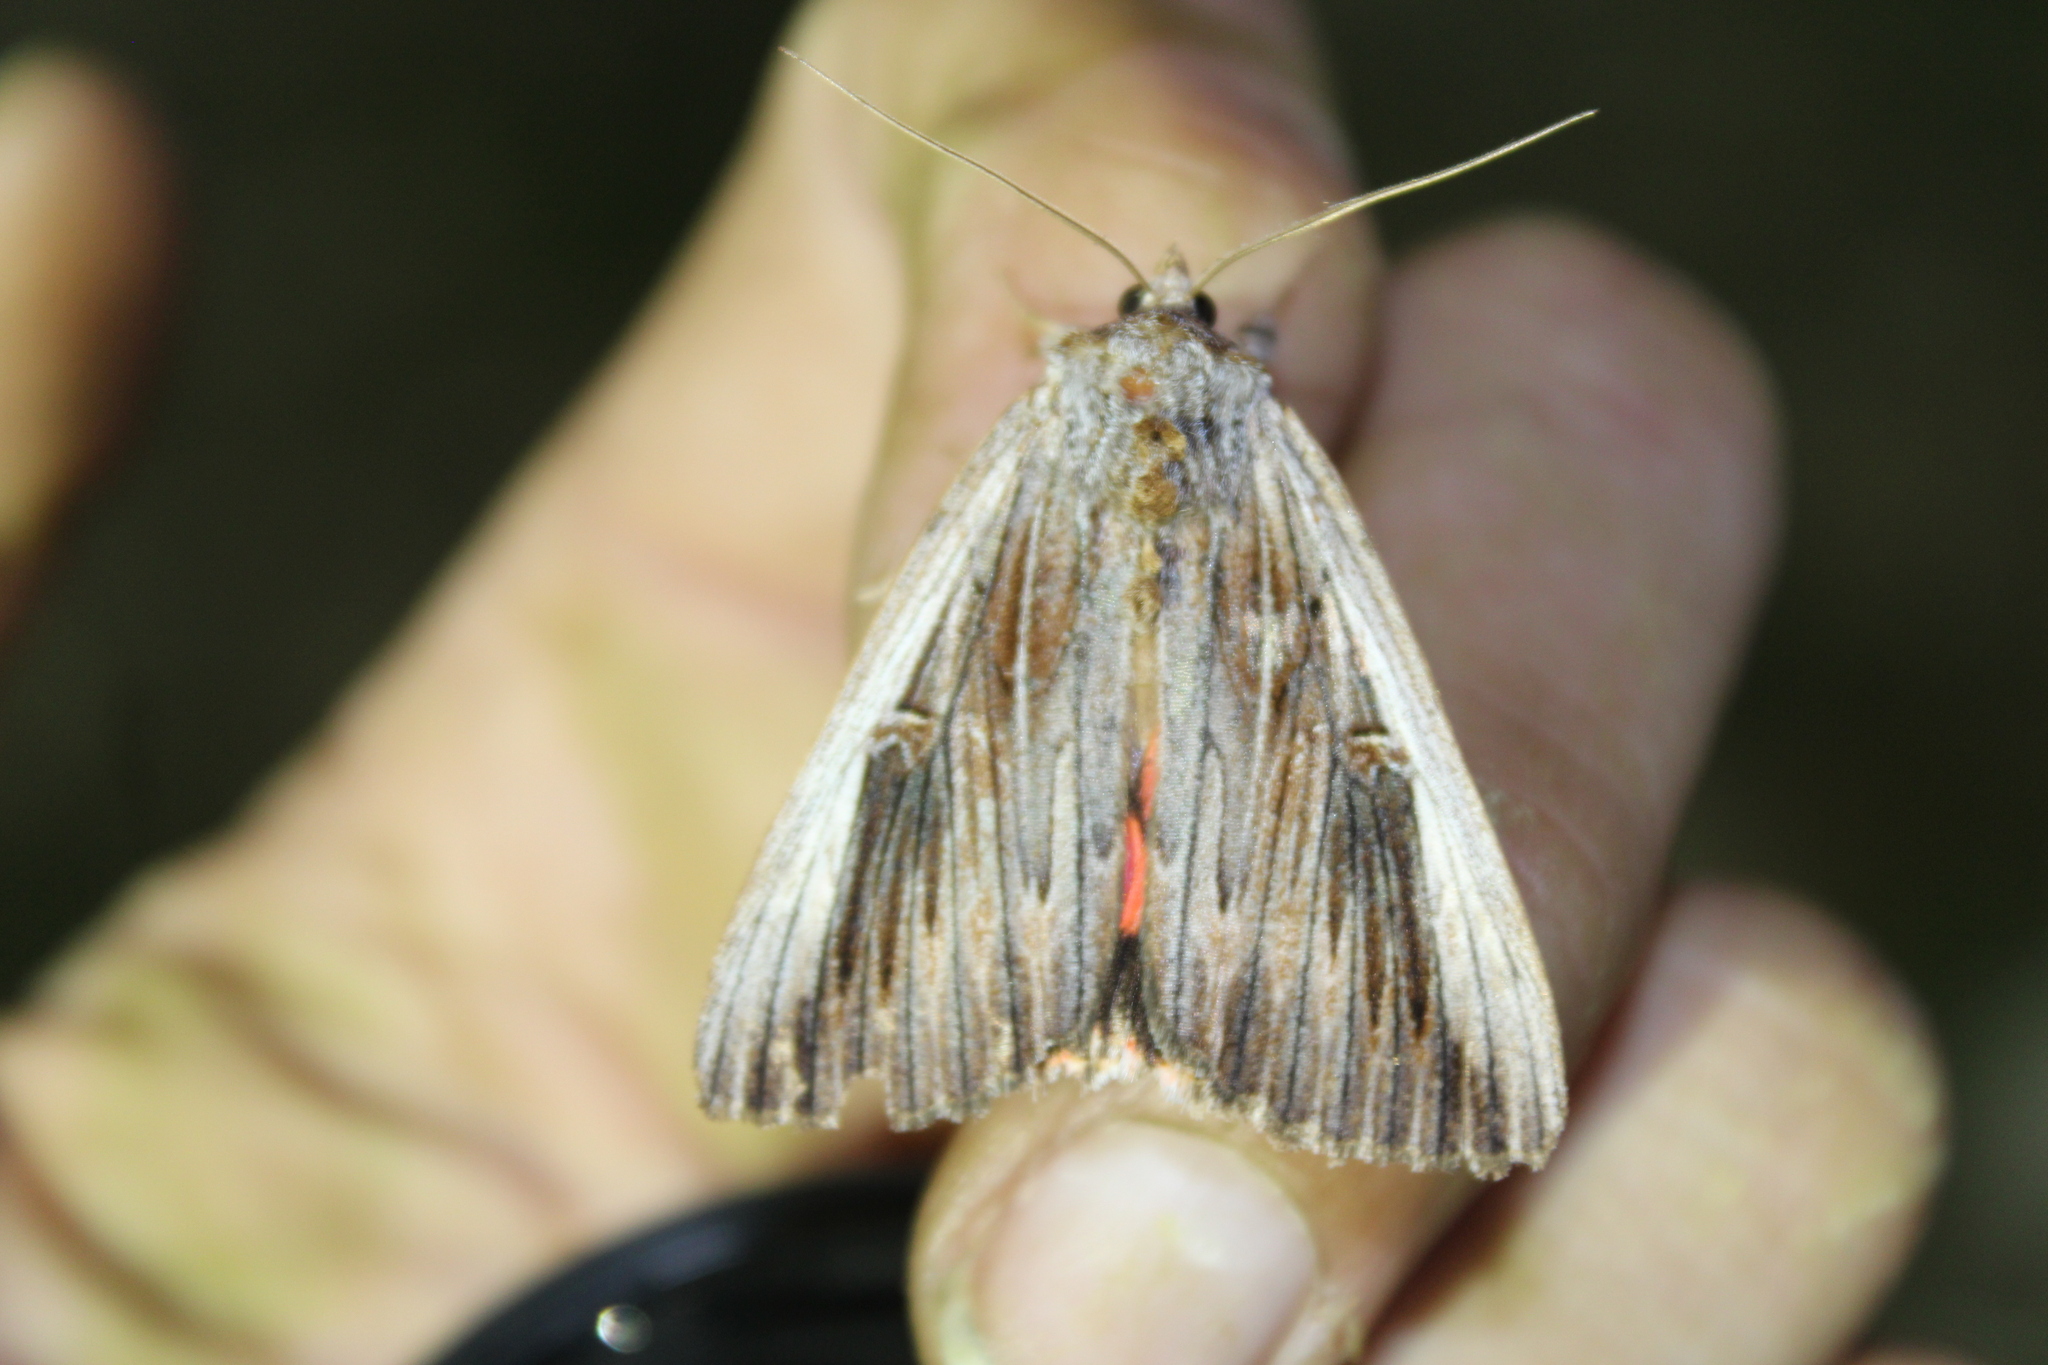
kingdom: Animalia
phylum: Arthropoda
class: Insecta
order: Lepidoptera
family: Erebidae
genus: Catocala
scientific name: Catocala herodias
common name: Pine barrens underwing
